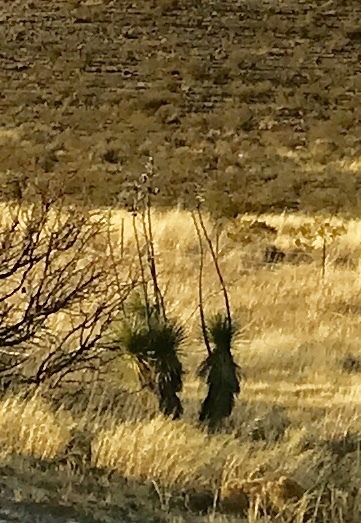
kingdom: Plantae
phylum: Tracheophyta
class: Liliopsida
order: Asparagales
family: Asparagaceae
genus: Yucca
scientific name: Yucca elata
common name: Palmella
